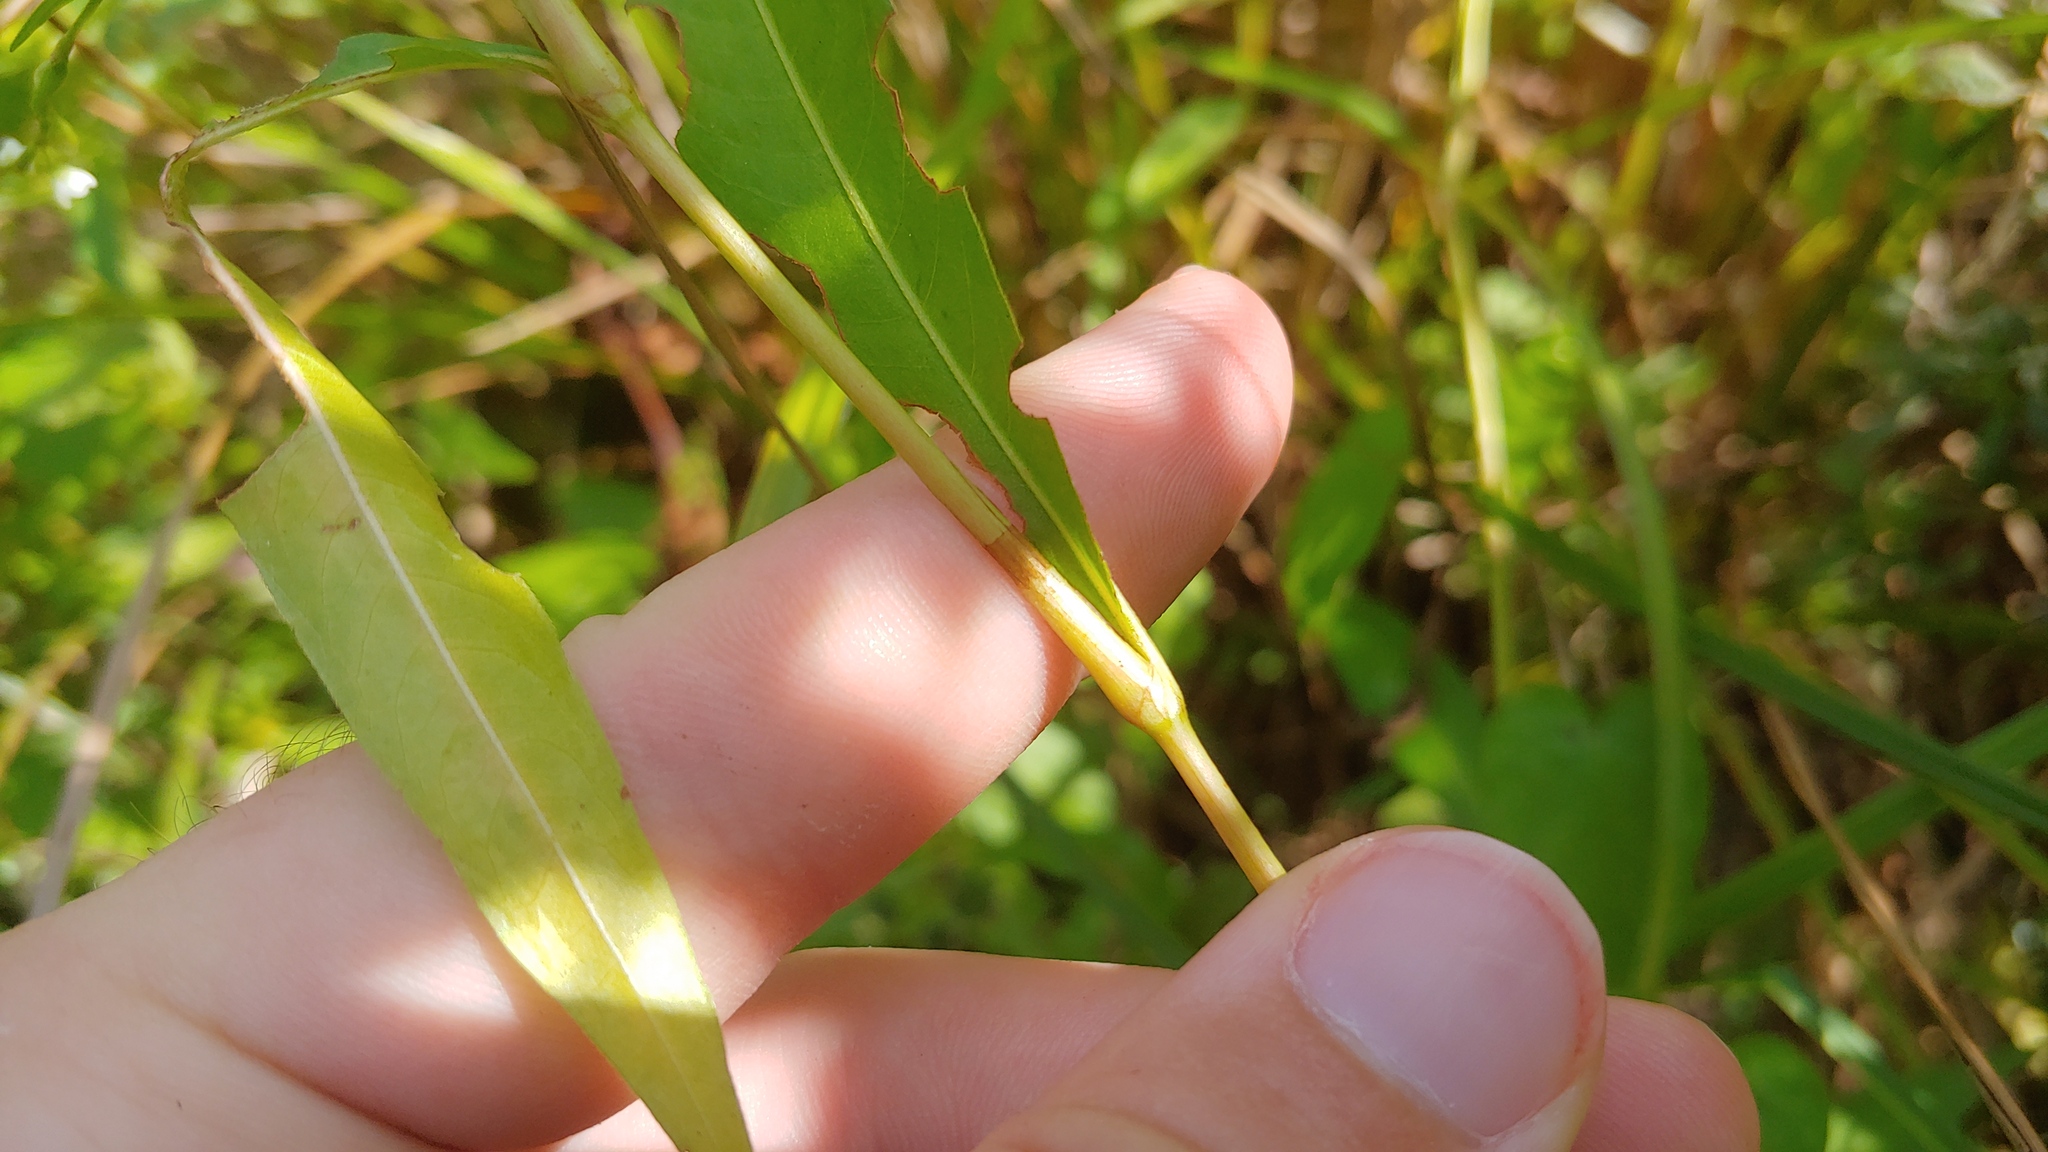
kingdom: Plantae
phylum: Tracheophyta
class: Magnoliopsida
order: Caryophyllales
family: Polygonaceae
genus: Persicaria
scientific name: Persicaria punctata
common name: Dotted smartweed
